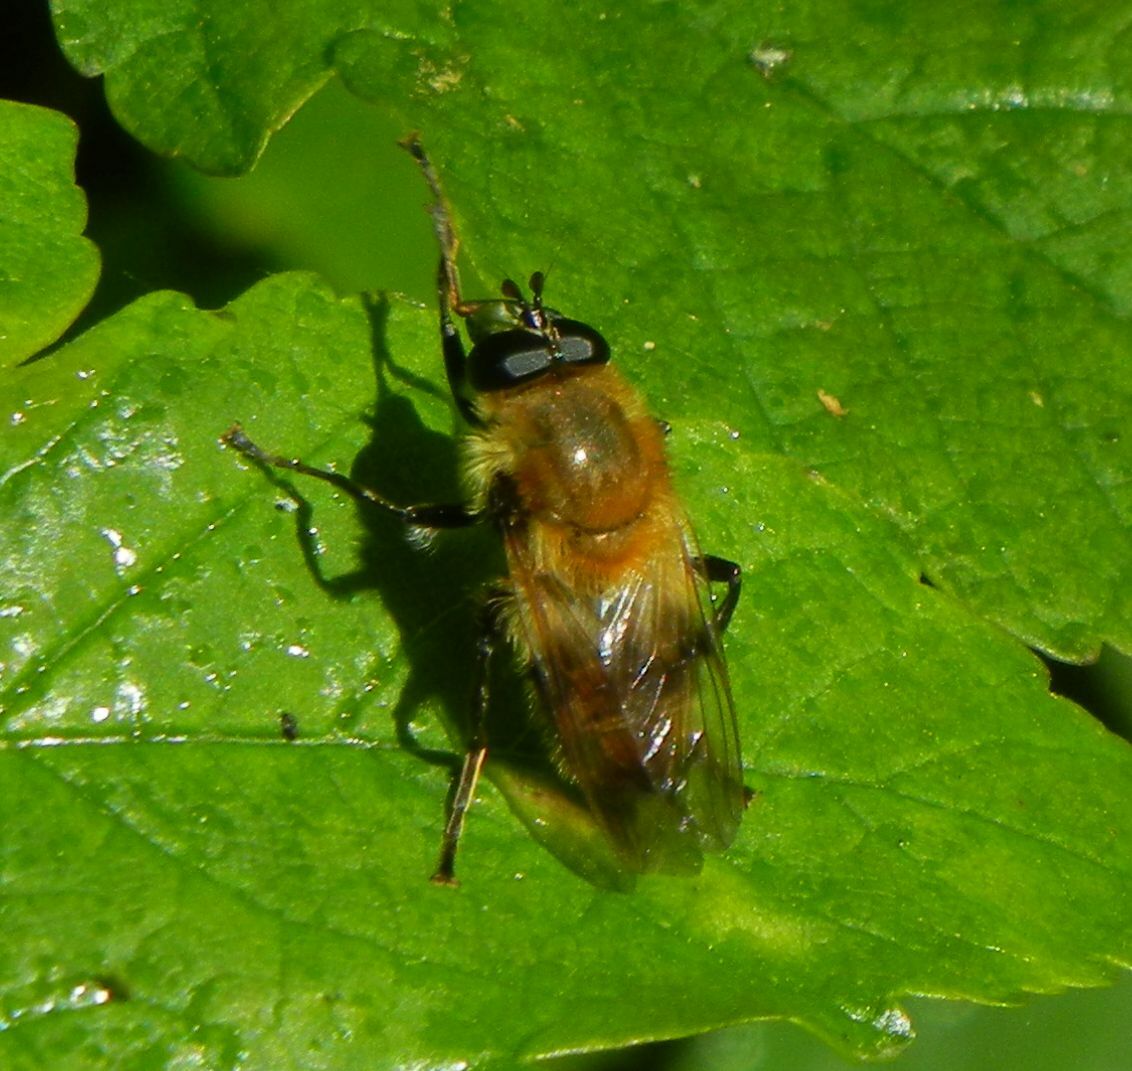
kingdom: Animalia
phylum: Arthropoda
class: Insecta
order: Diptera
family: Syrphidae
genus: Criorhina
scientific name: Criorhina floccosa
